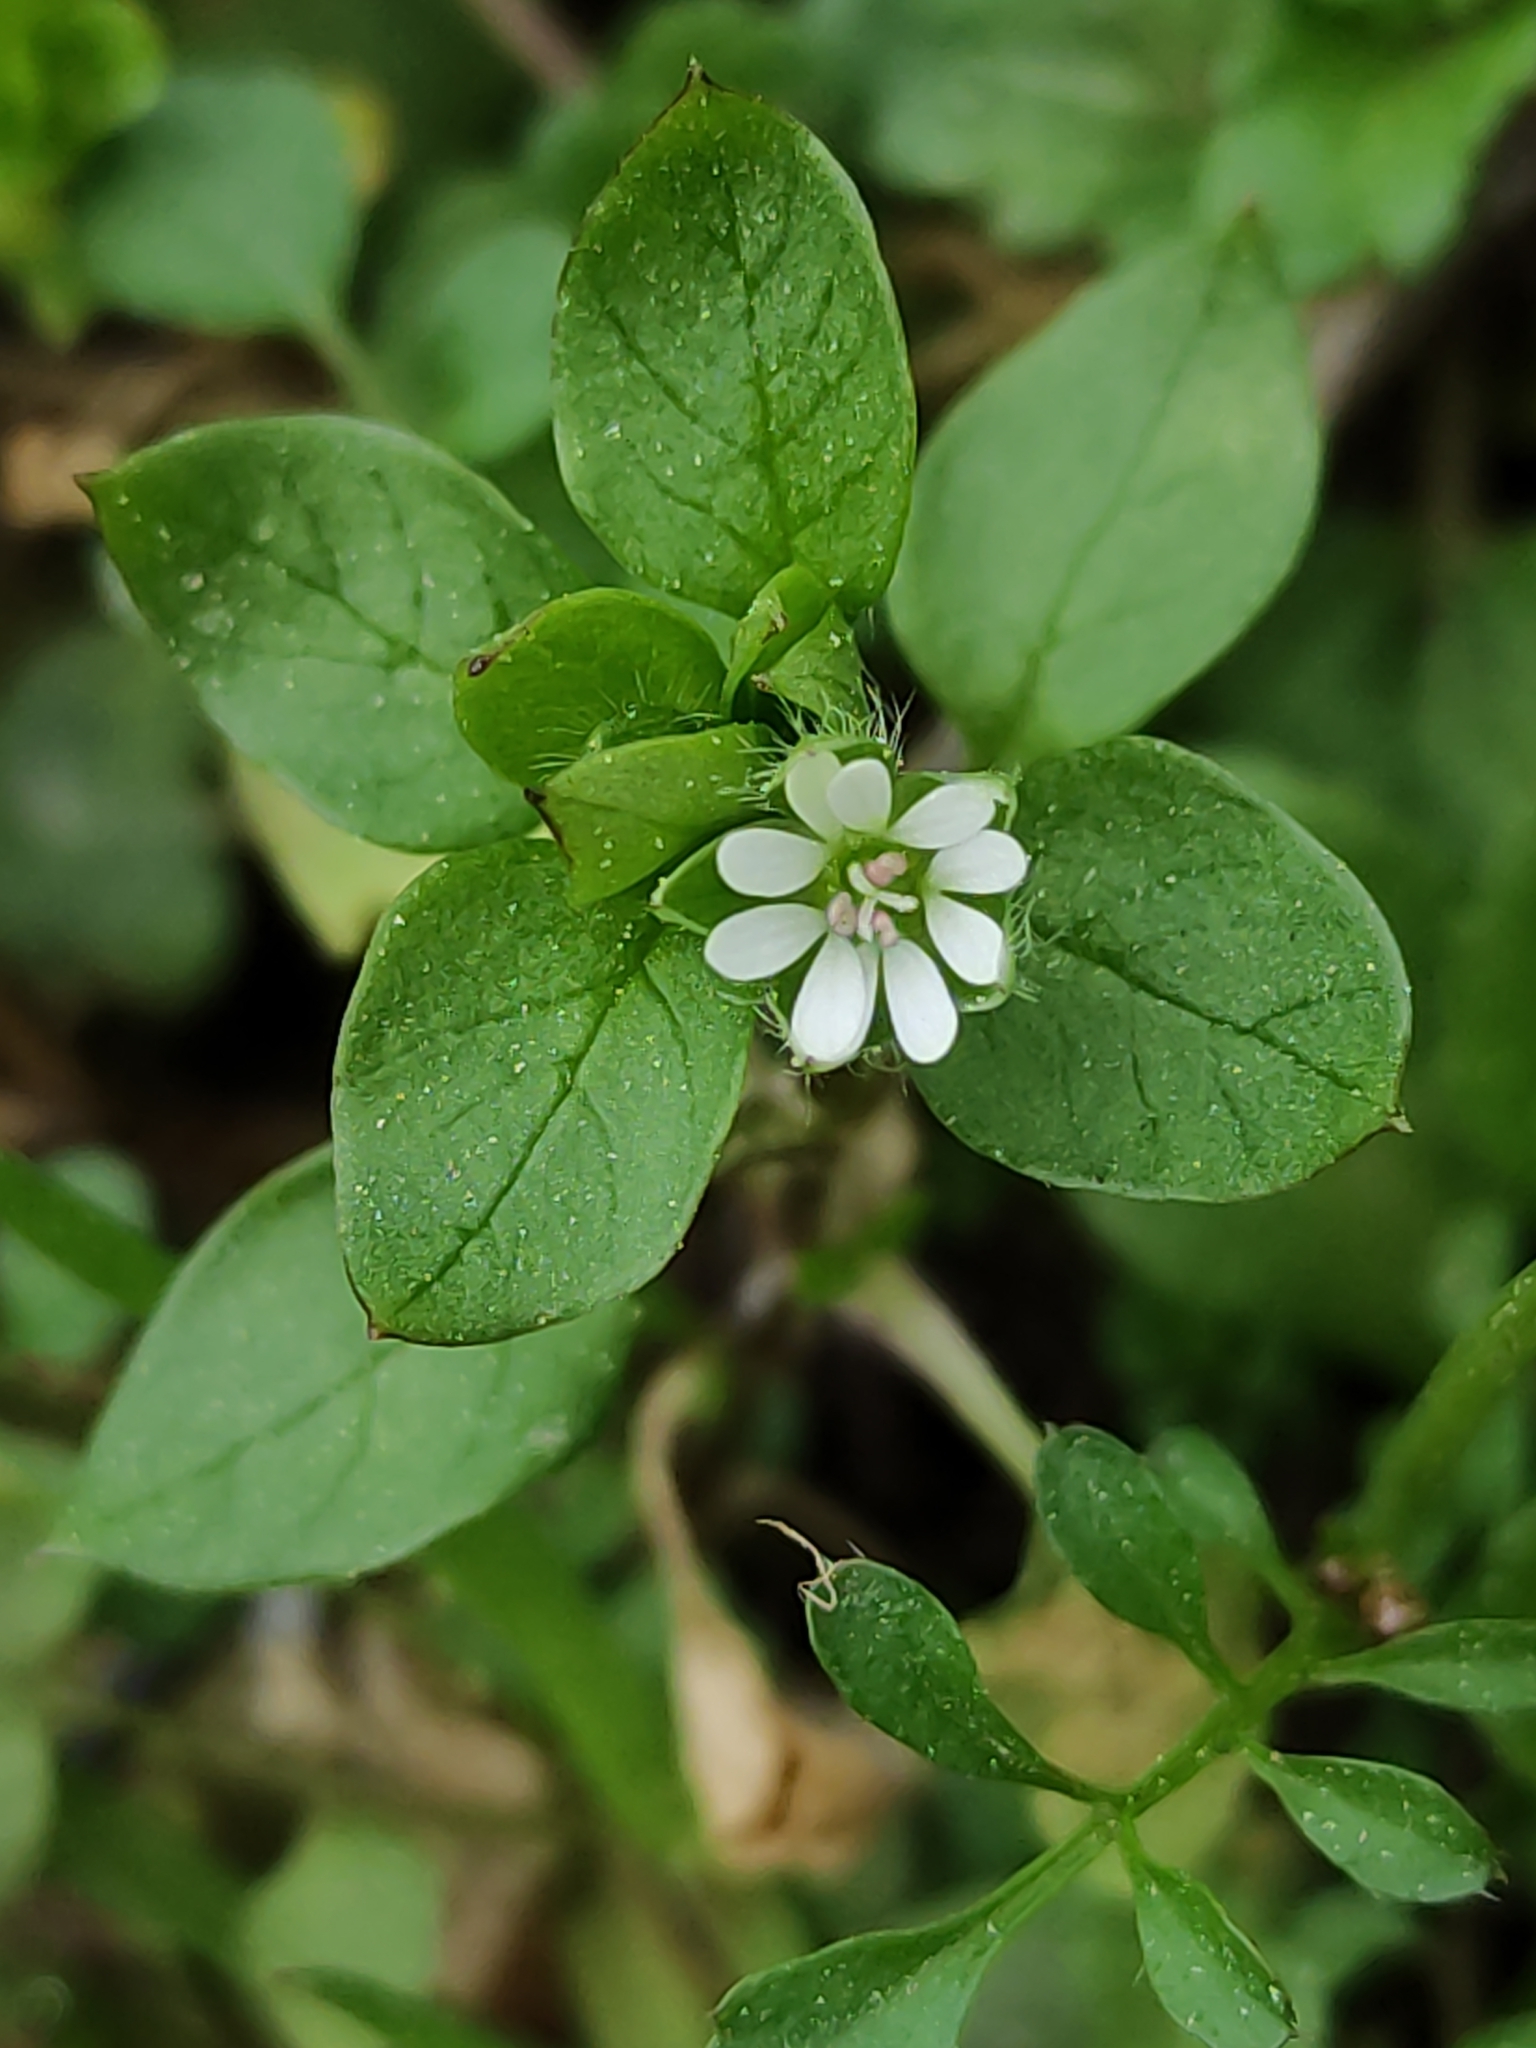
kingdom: Plantae
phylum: Tracheophyta
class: Magnoliopsida
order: Caryophyllales
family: Caryophyllaceae
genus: Stellaria
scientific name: Stellaria media
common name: Common chickweed
